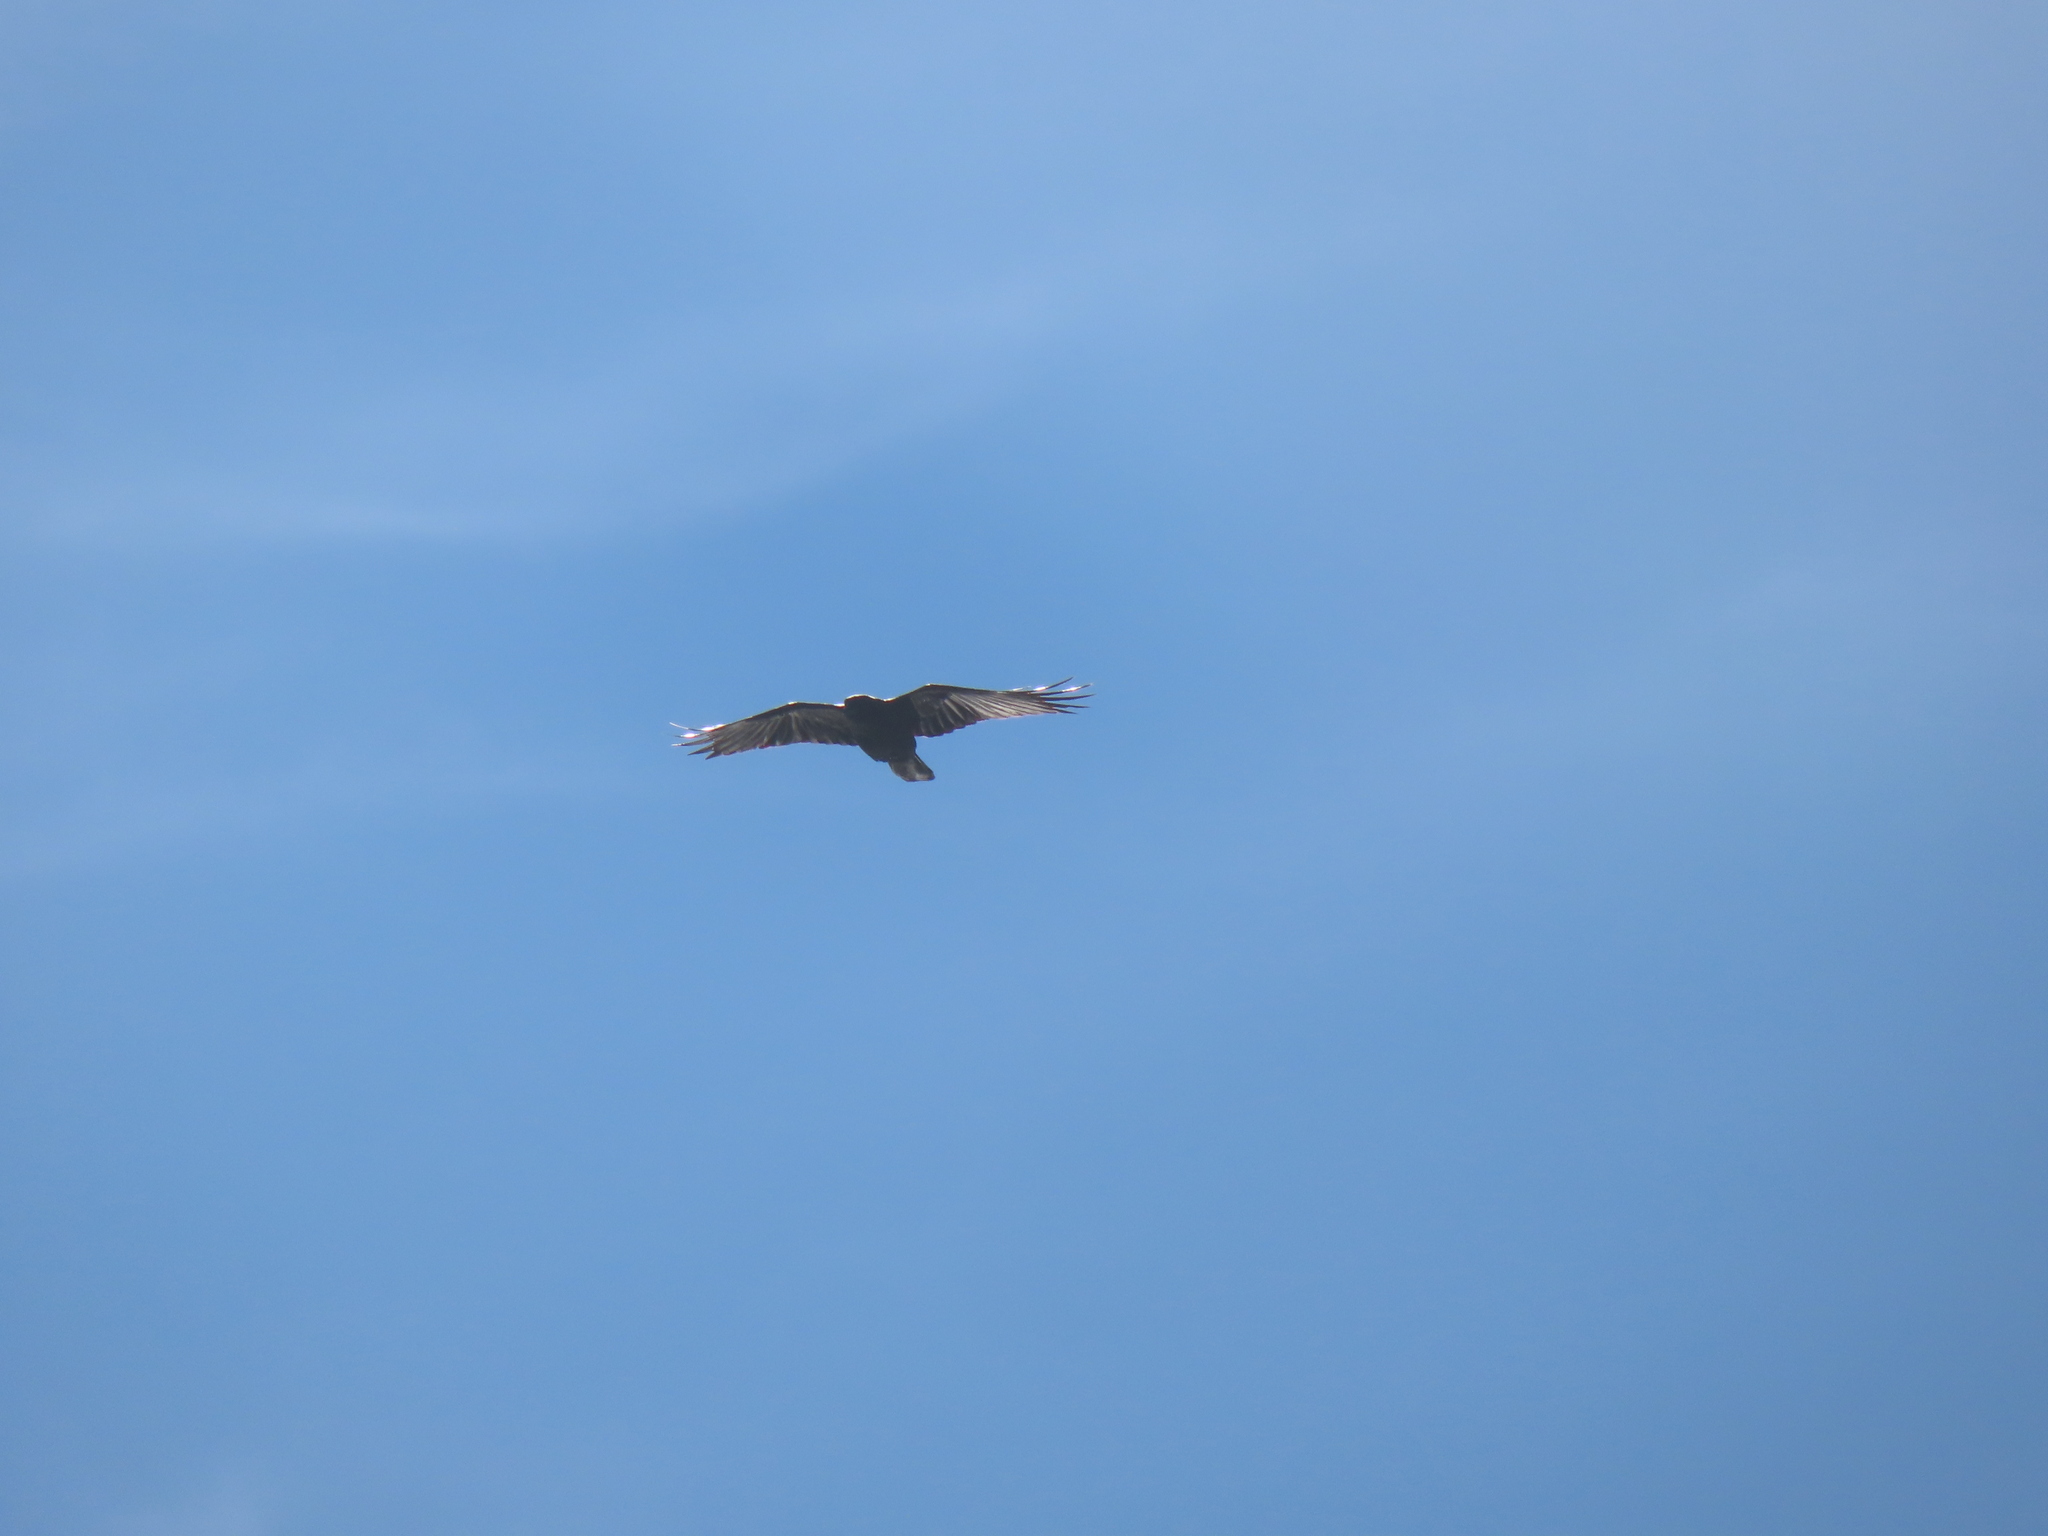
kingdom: Animalia
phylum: Chordata
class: Aves
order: Passeriformes
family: Corvidae
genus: Corvus
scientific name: Corvus brachyrhynchos
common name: American crow
